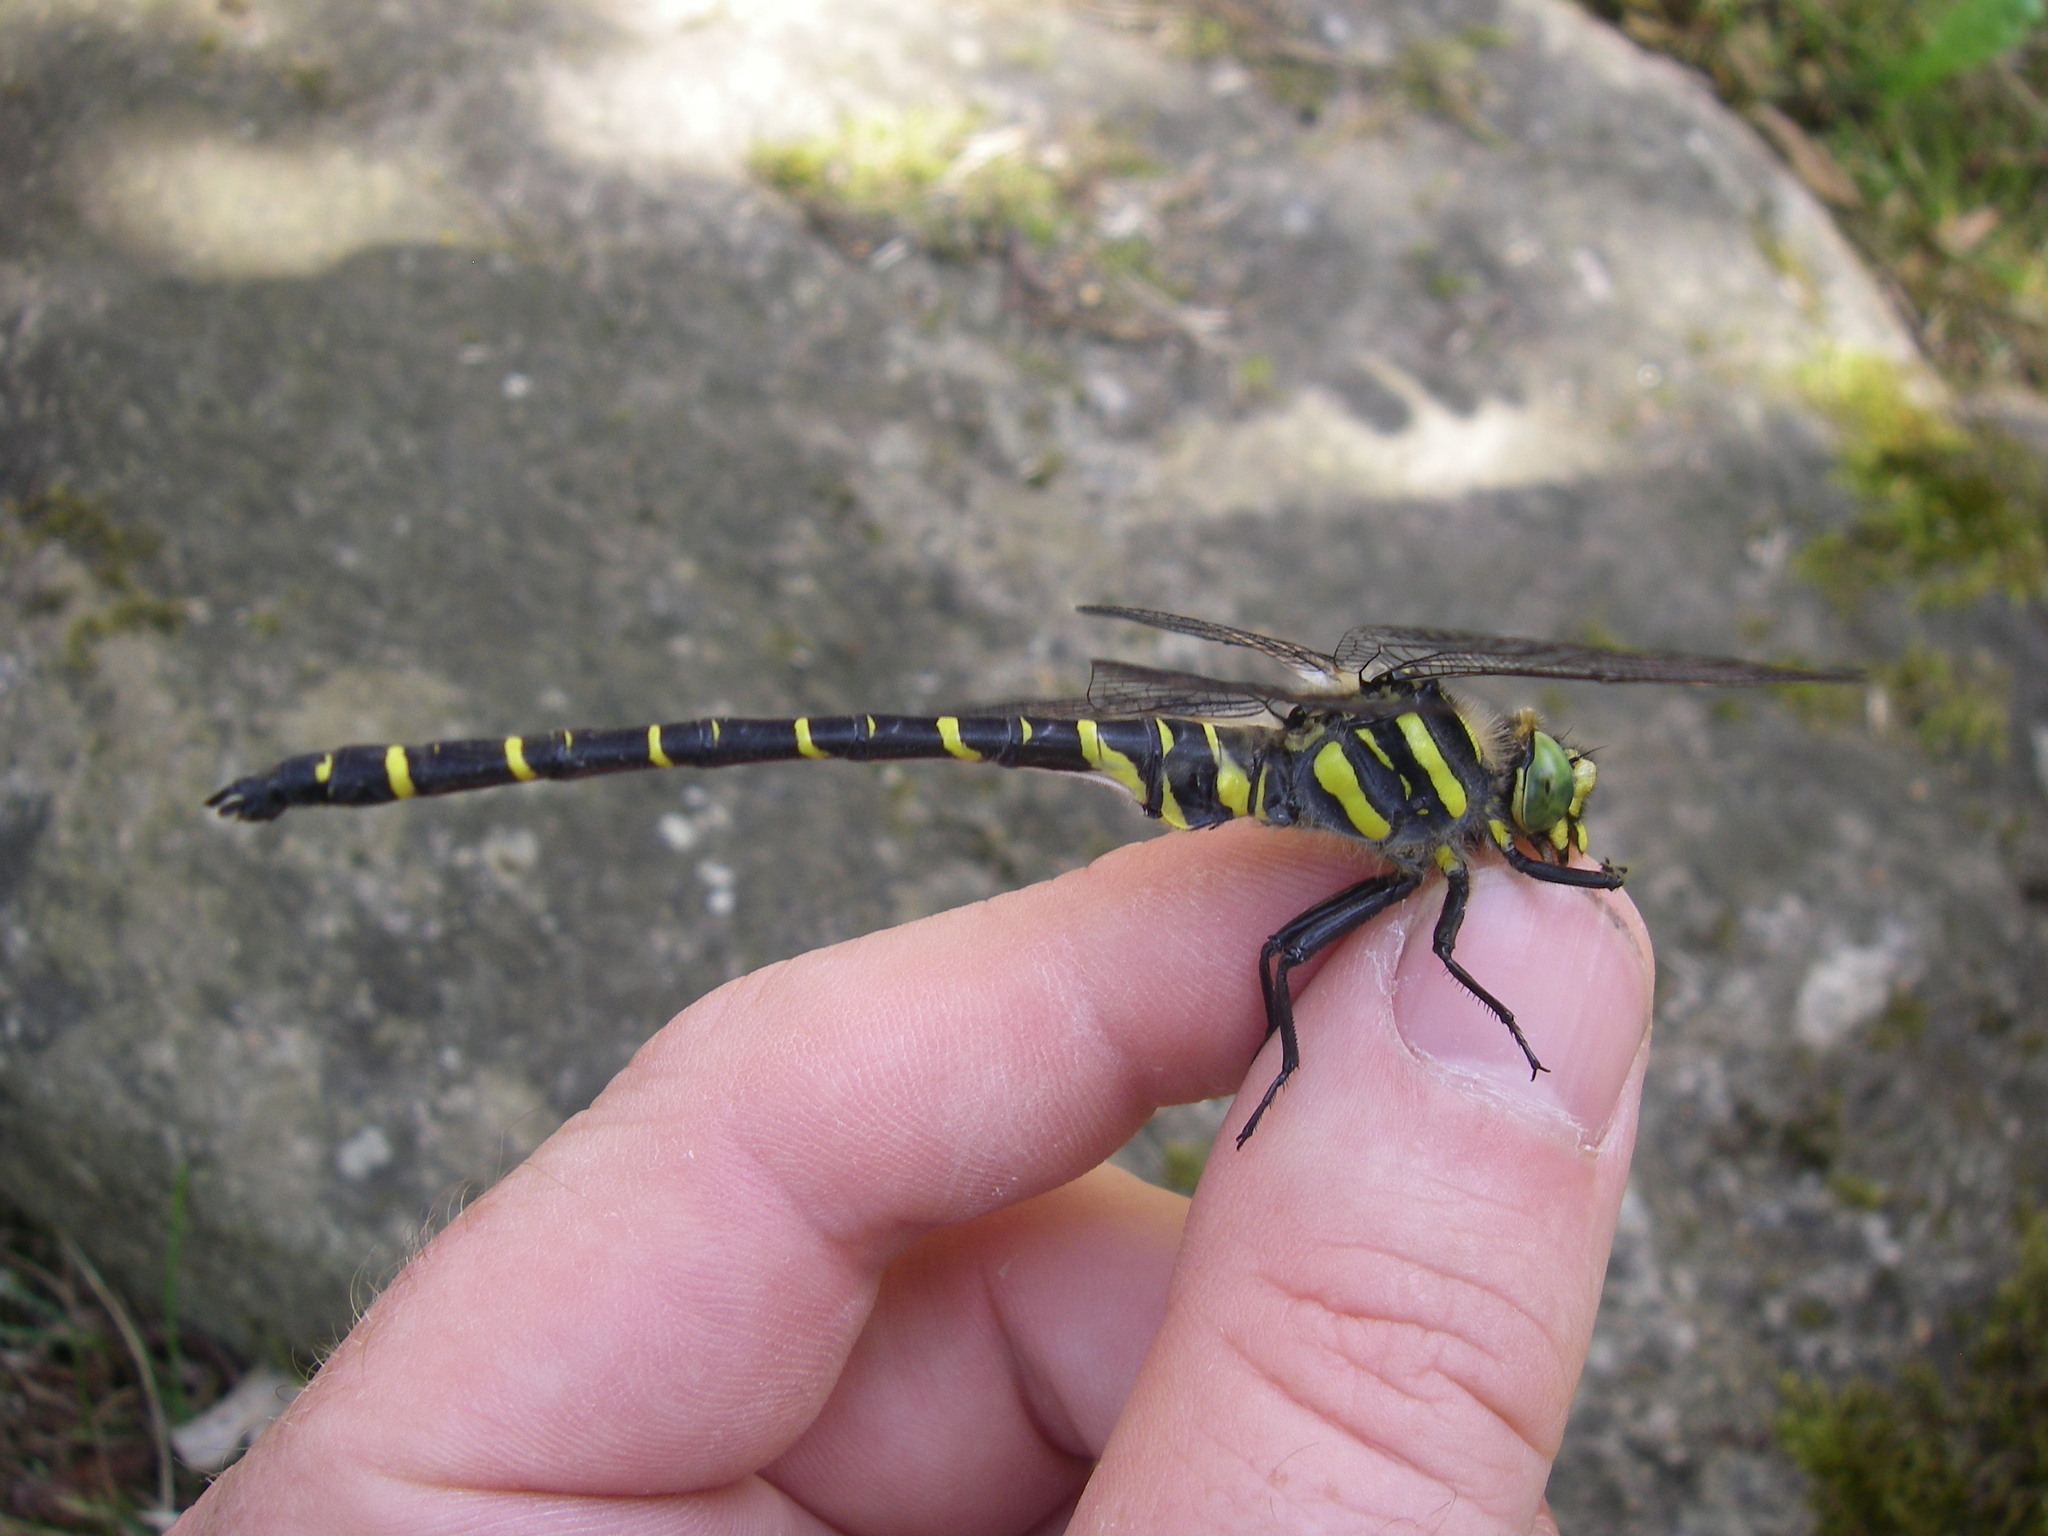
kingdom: Animalia
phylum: Arthropoda
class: Insecta
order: Odonata
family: Cordulegastridae
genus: Cordulegaster
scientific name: Cordulegaster boltonii
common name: Golden-ringed dragonfly
